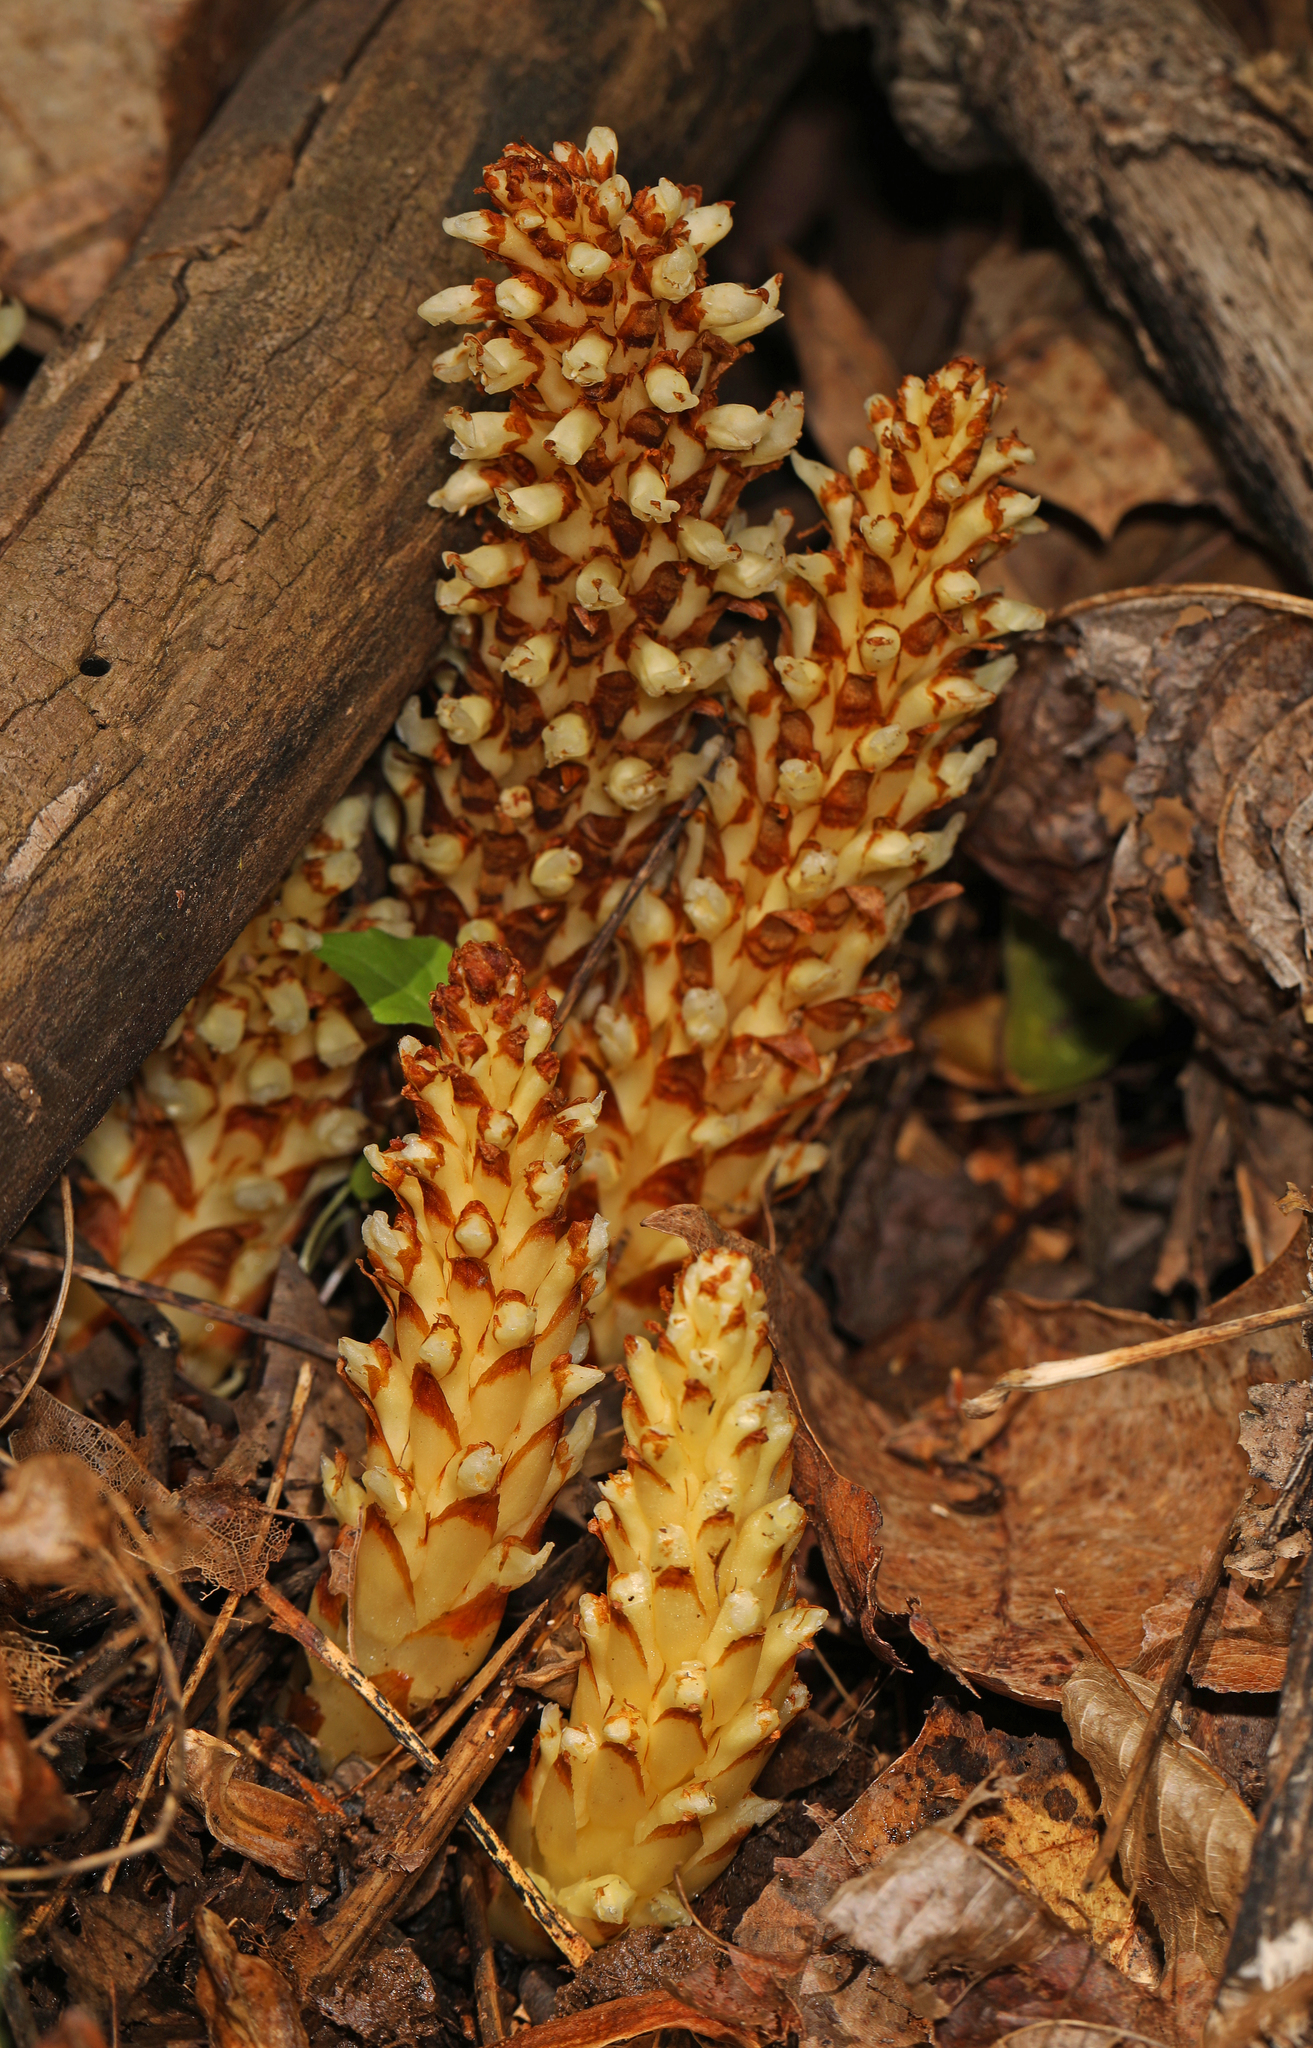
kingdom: Plantae
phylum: Tracheophyta
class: Magnoliopsida
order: Lamiales
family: Orobanchaceae
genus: Conopholis
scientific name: Conopholis americana
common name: American cancer-root
